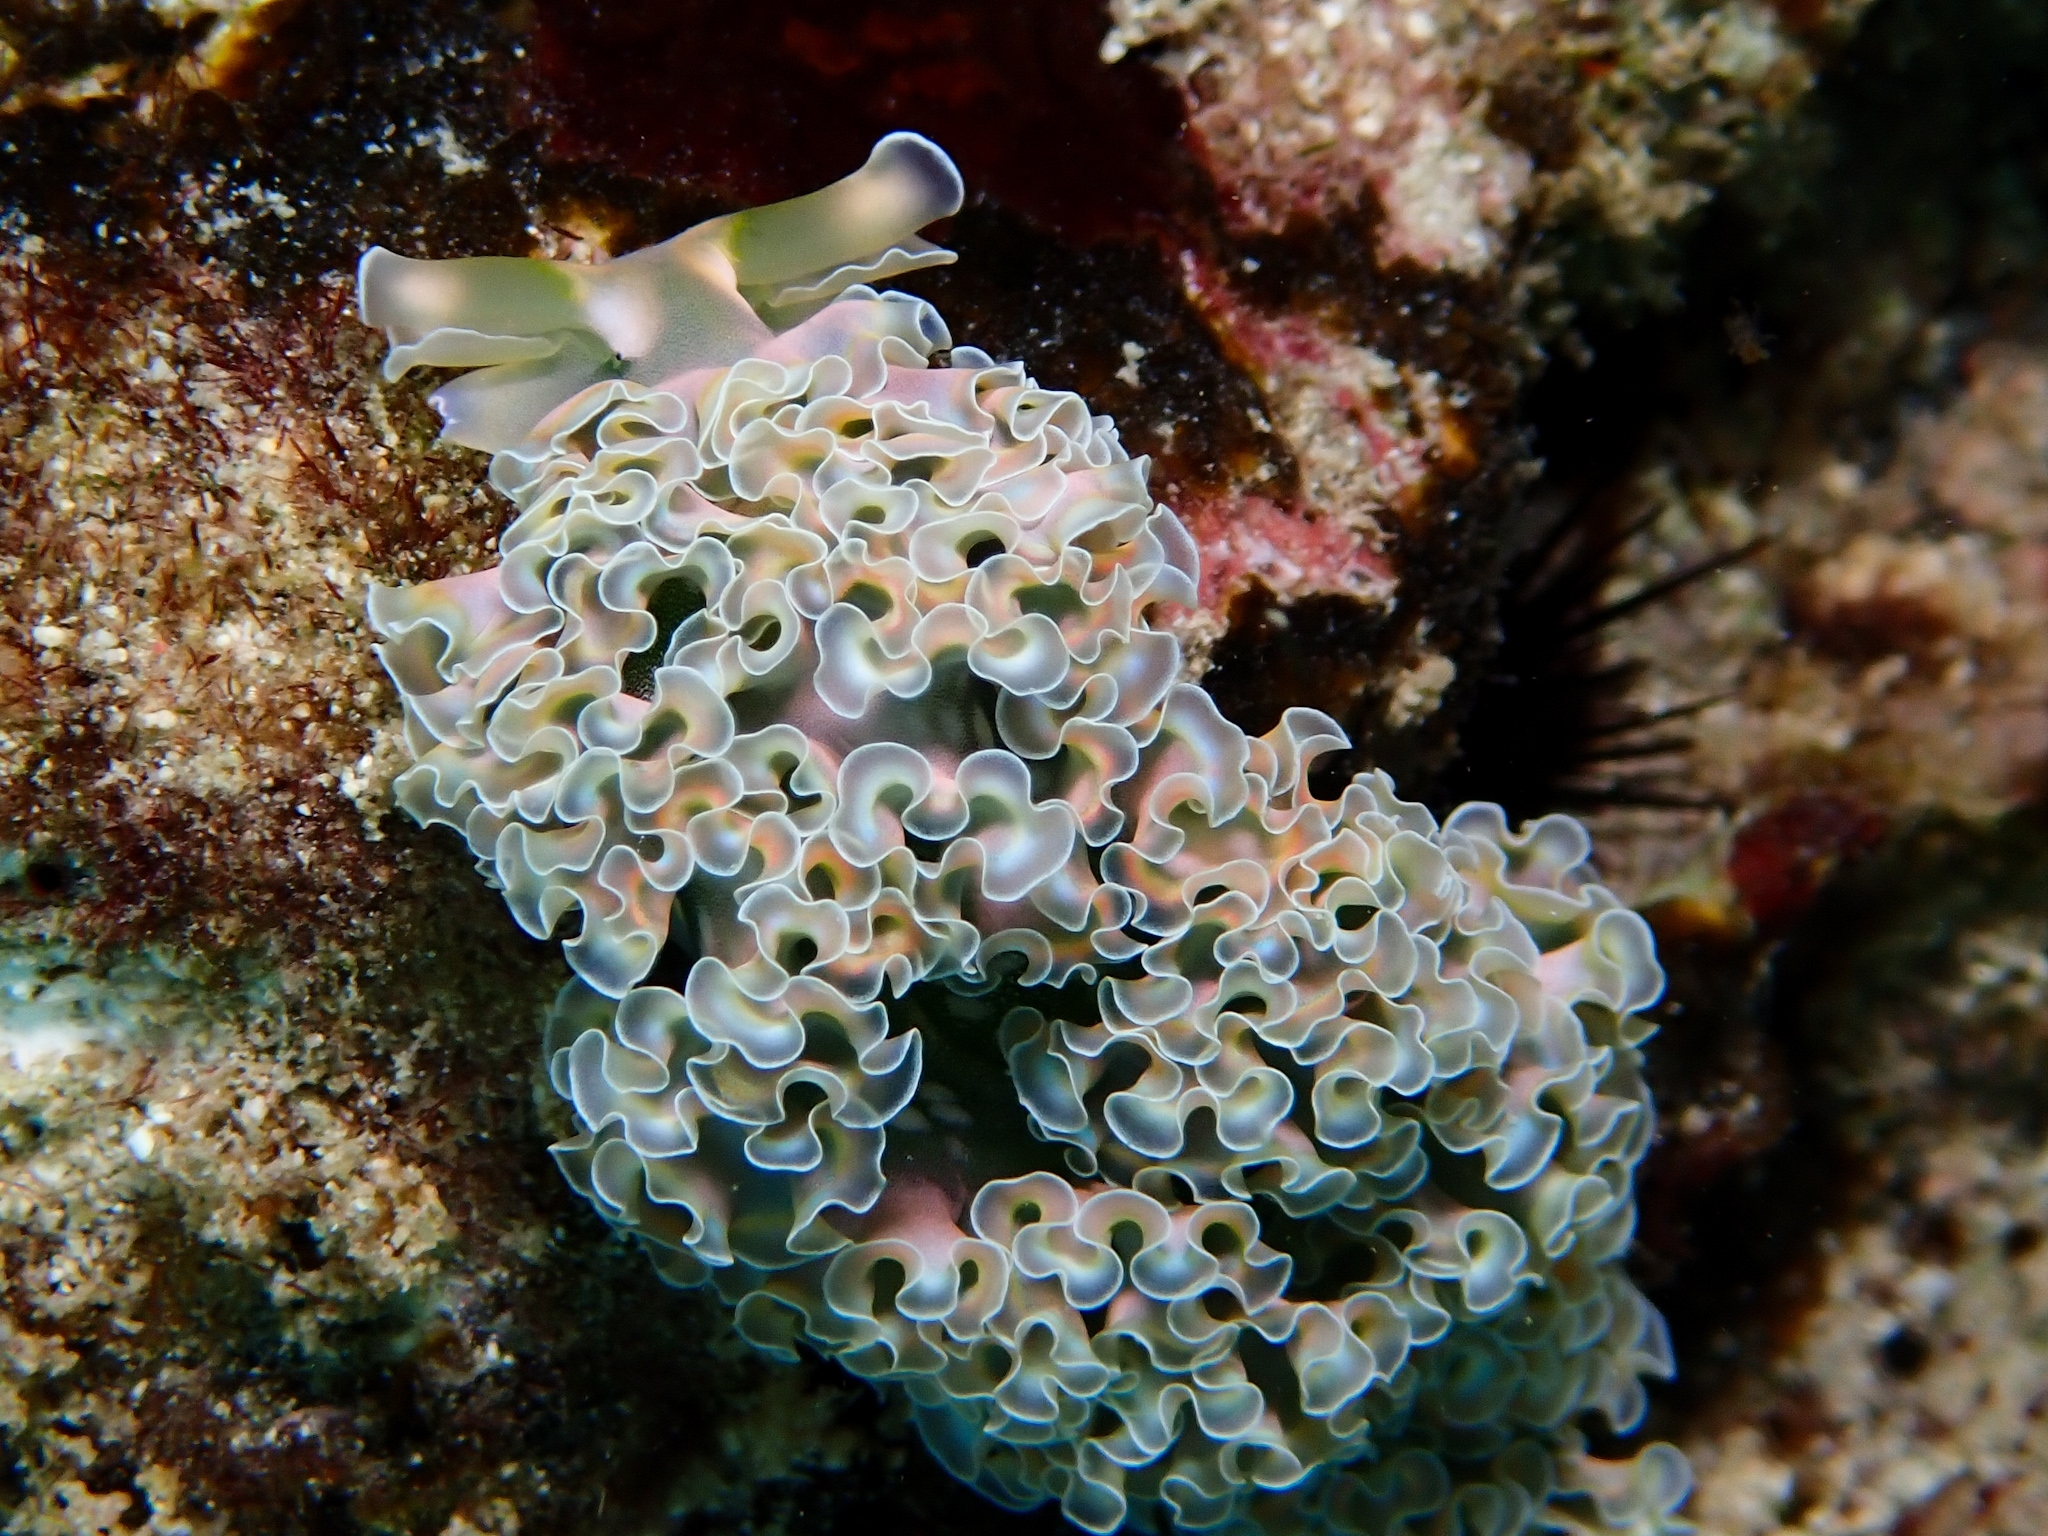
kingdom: Animalia
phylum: Mollusca
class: Gastropoda
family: Plakobranchidae
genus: Elysia
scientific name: Elysia crispata
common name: Lettuce slug
